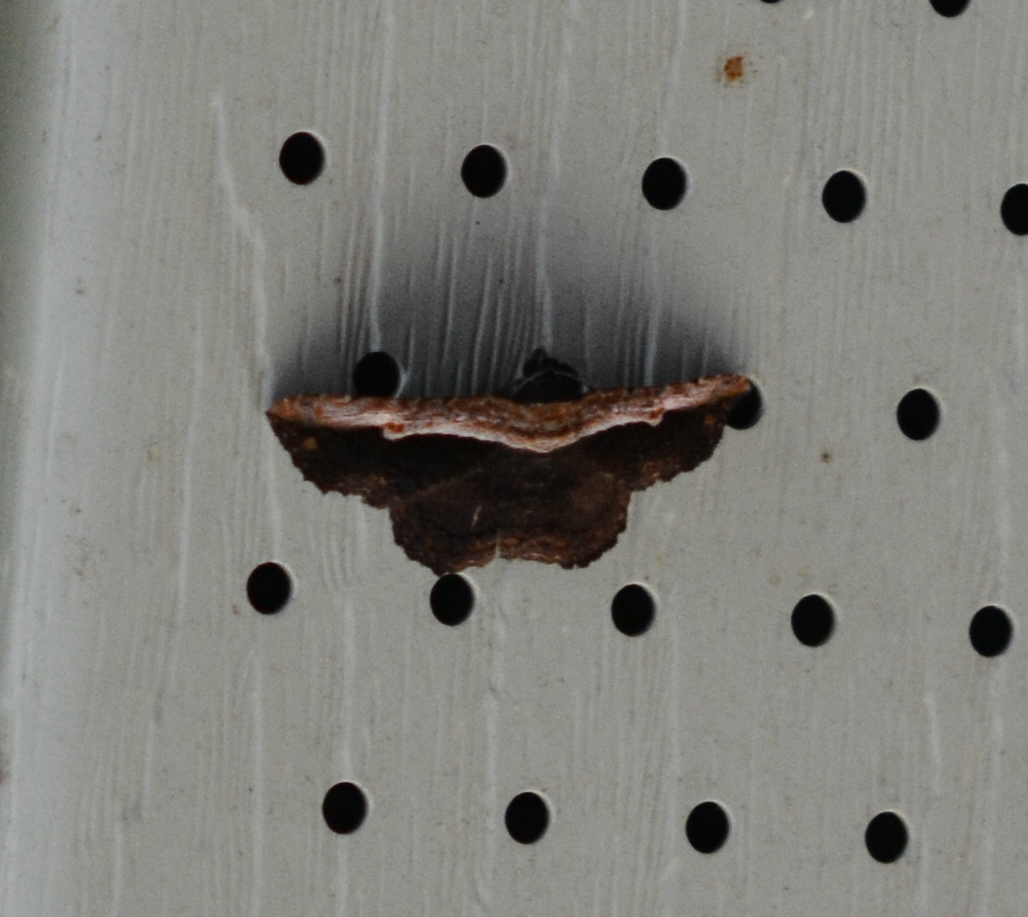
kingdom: Animalia
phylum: Arthropoda
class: Insecta
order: Lepidoptera
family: Erebidae
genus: Selenisa
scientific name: Selenisa sueroides
